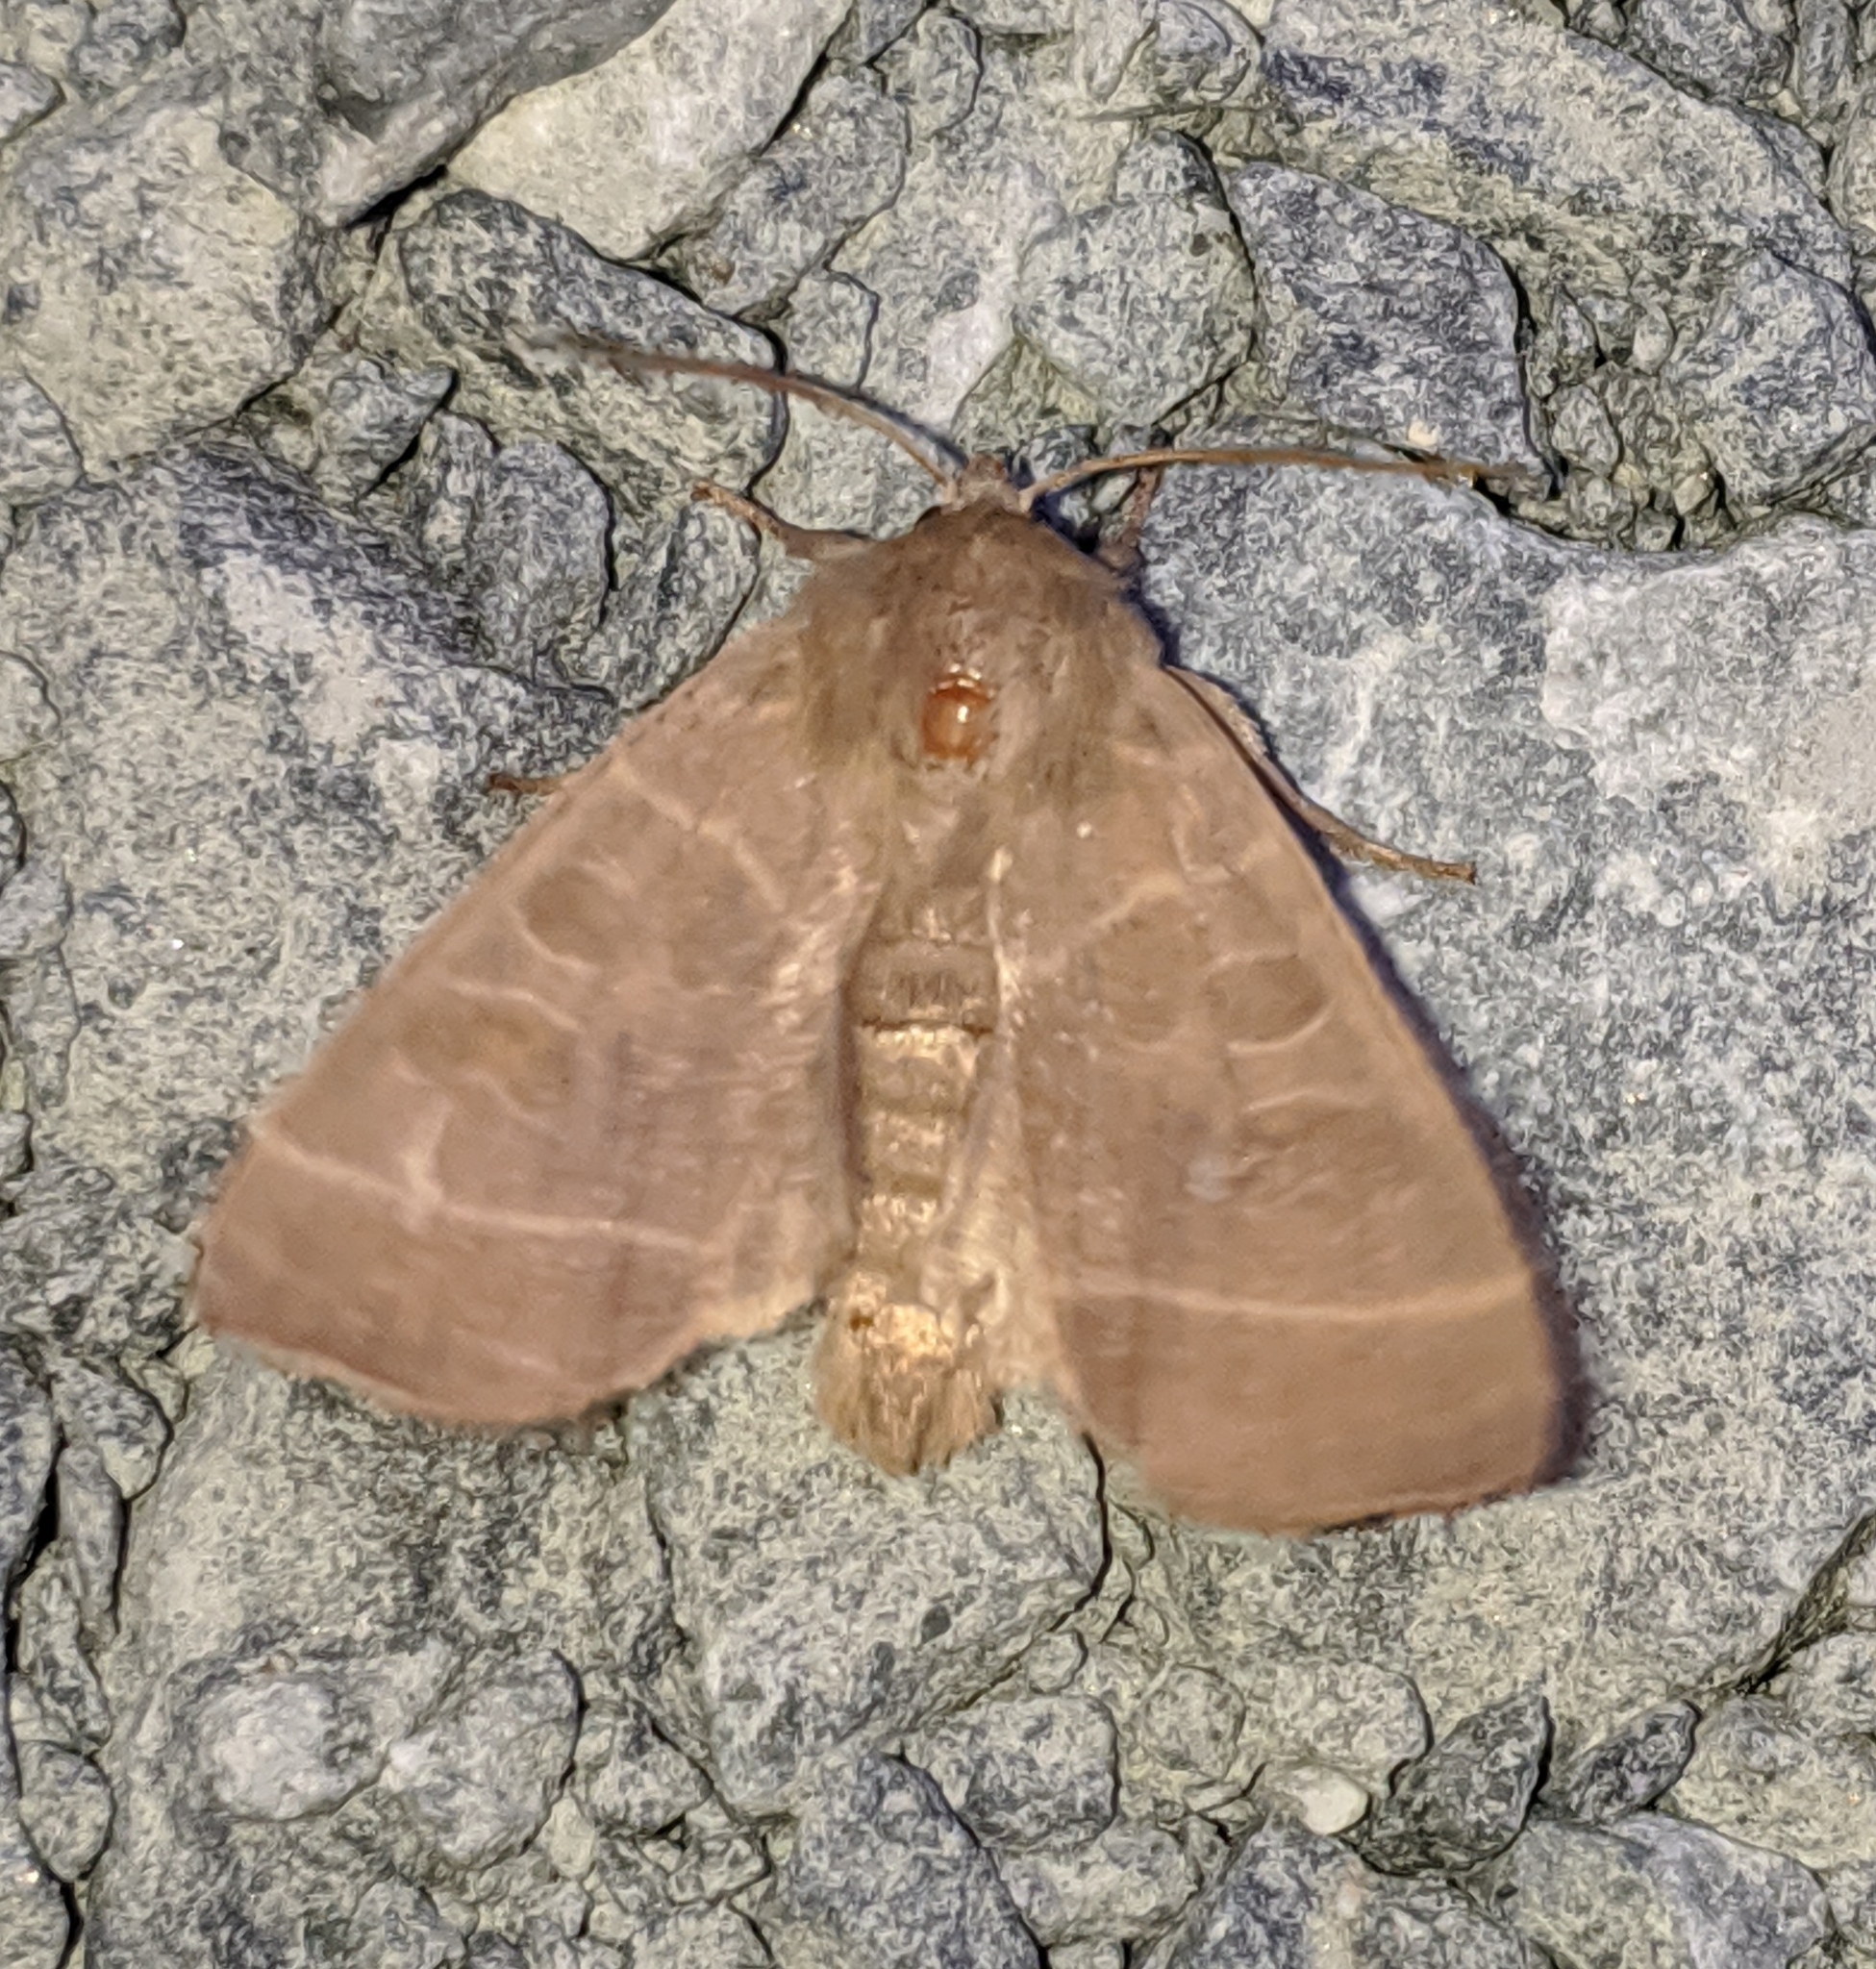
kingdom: Animalia
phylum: Arthropoda
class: Insecta
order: Lepidoptera
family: Noctuidae
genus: Ipimorpha
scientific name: Ipimorpha pleonectusa
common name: Even-lined sallow
